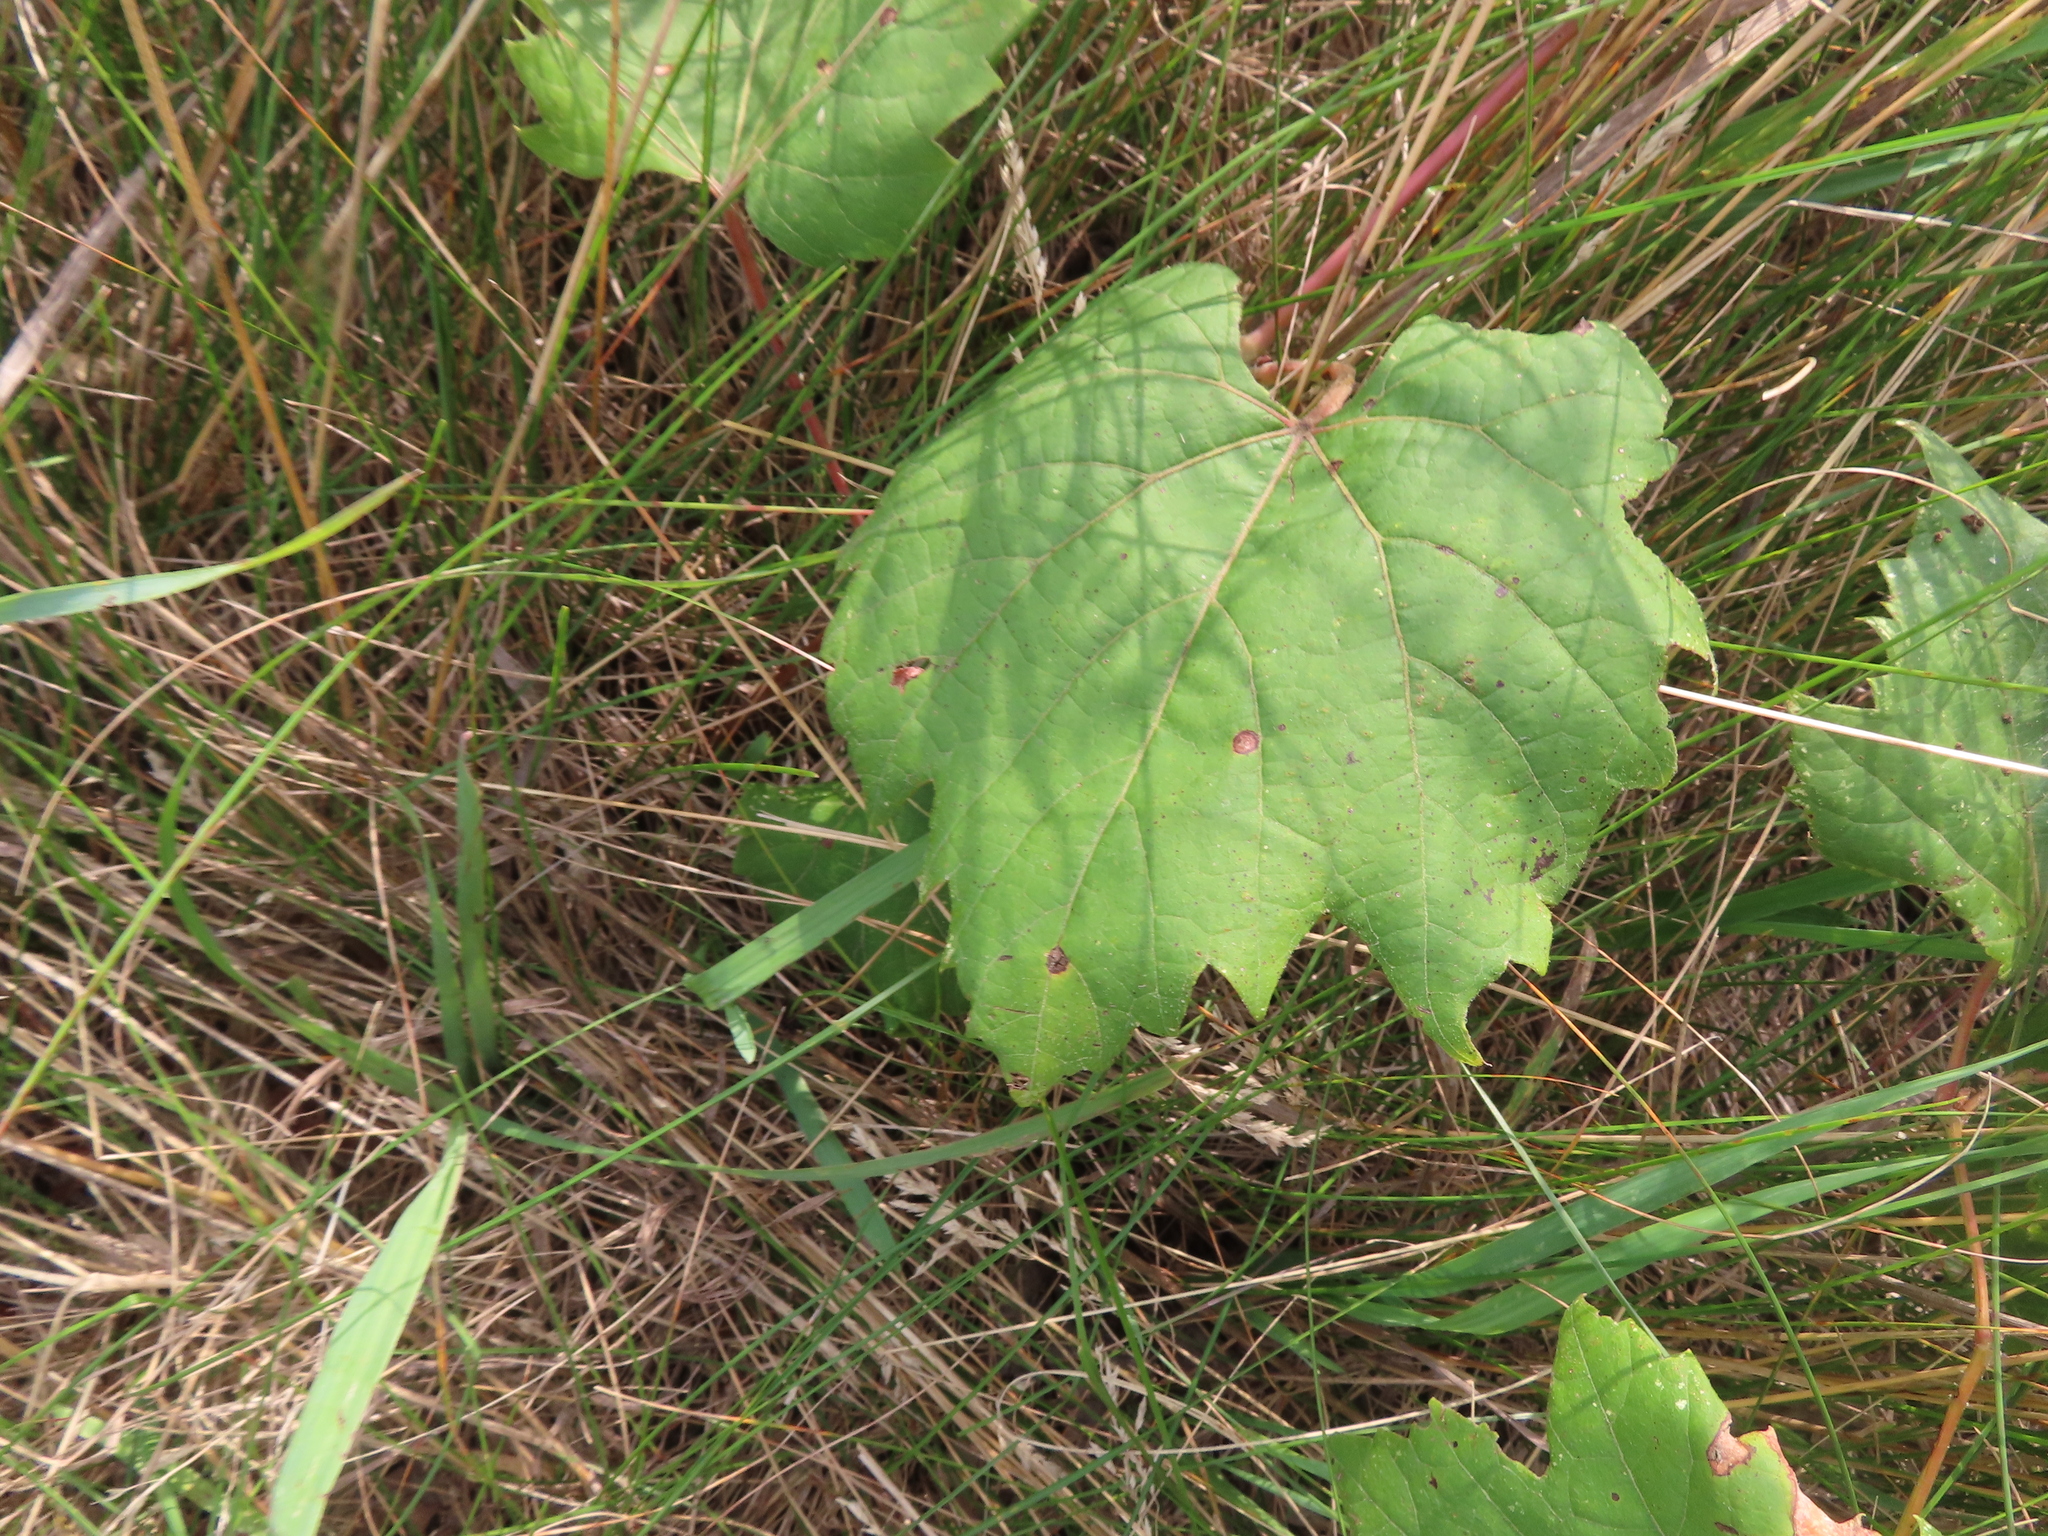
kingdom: Plantae
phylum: Tracheophyta
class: Magnoliopsida
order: Vitales
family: Vitaceae
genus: Vitis
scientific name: Vitis riparia
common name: Frost grape
